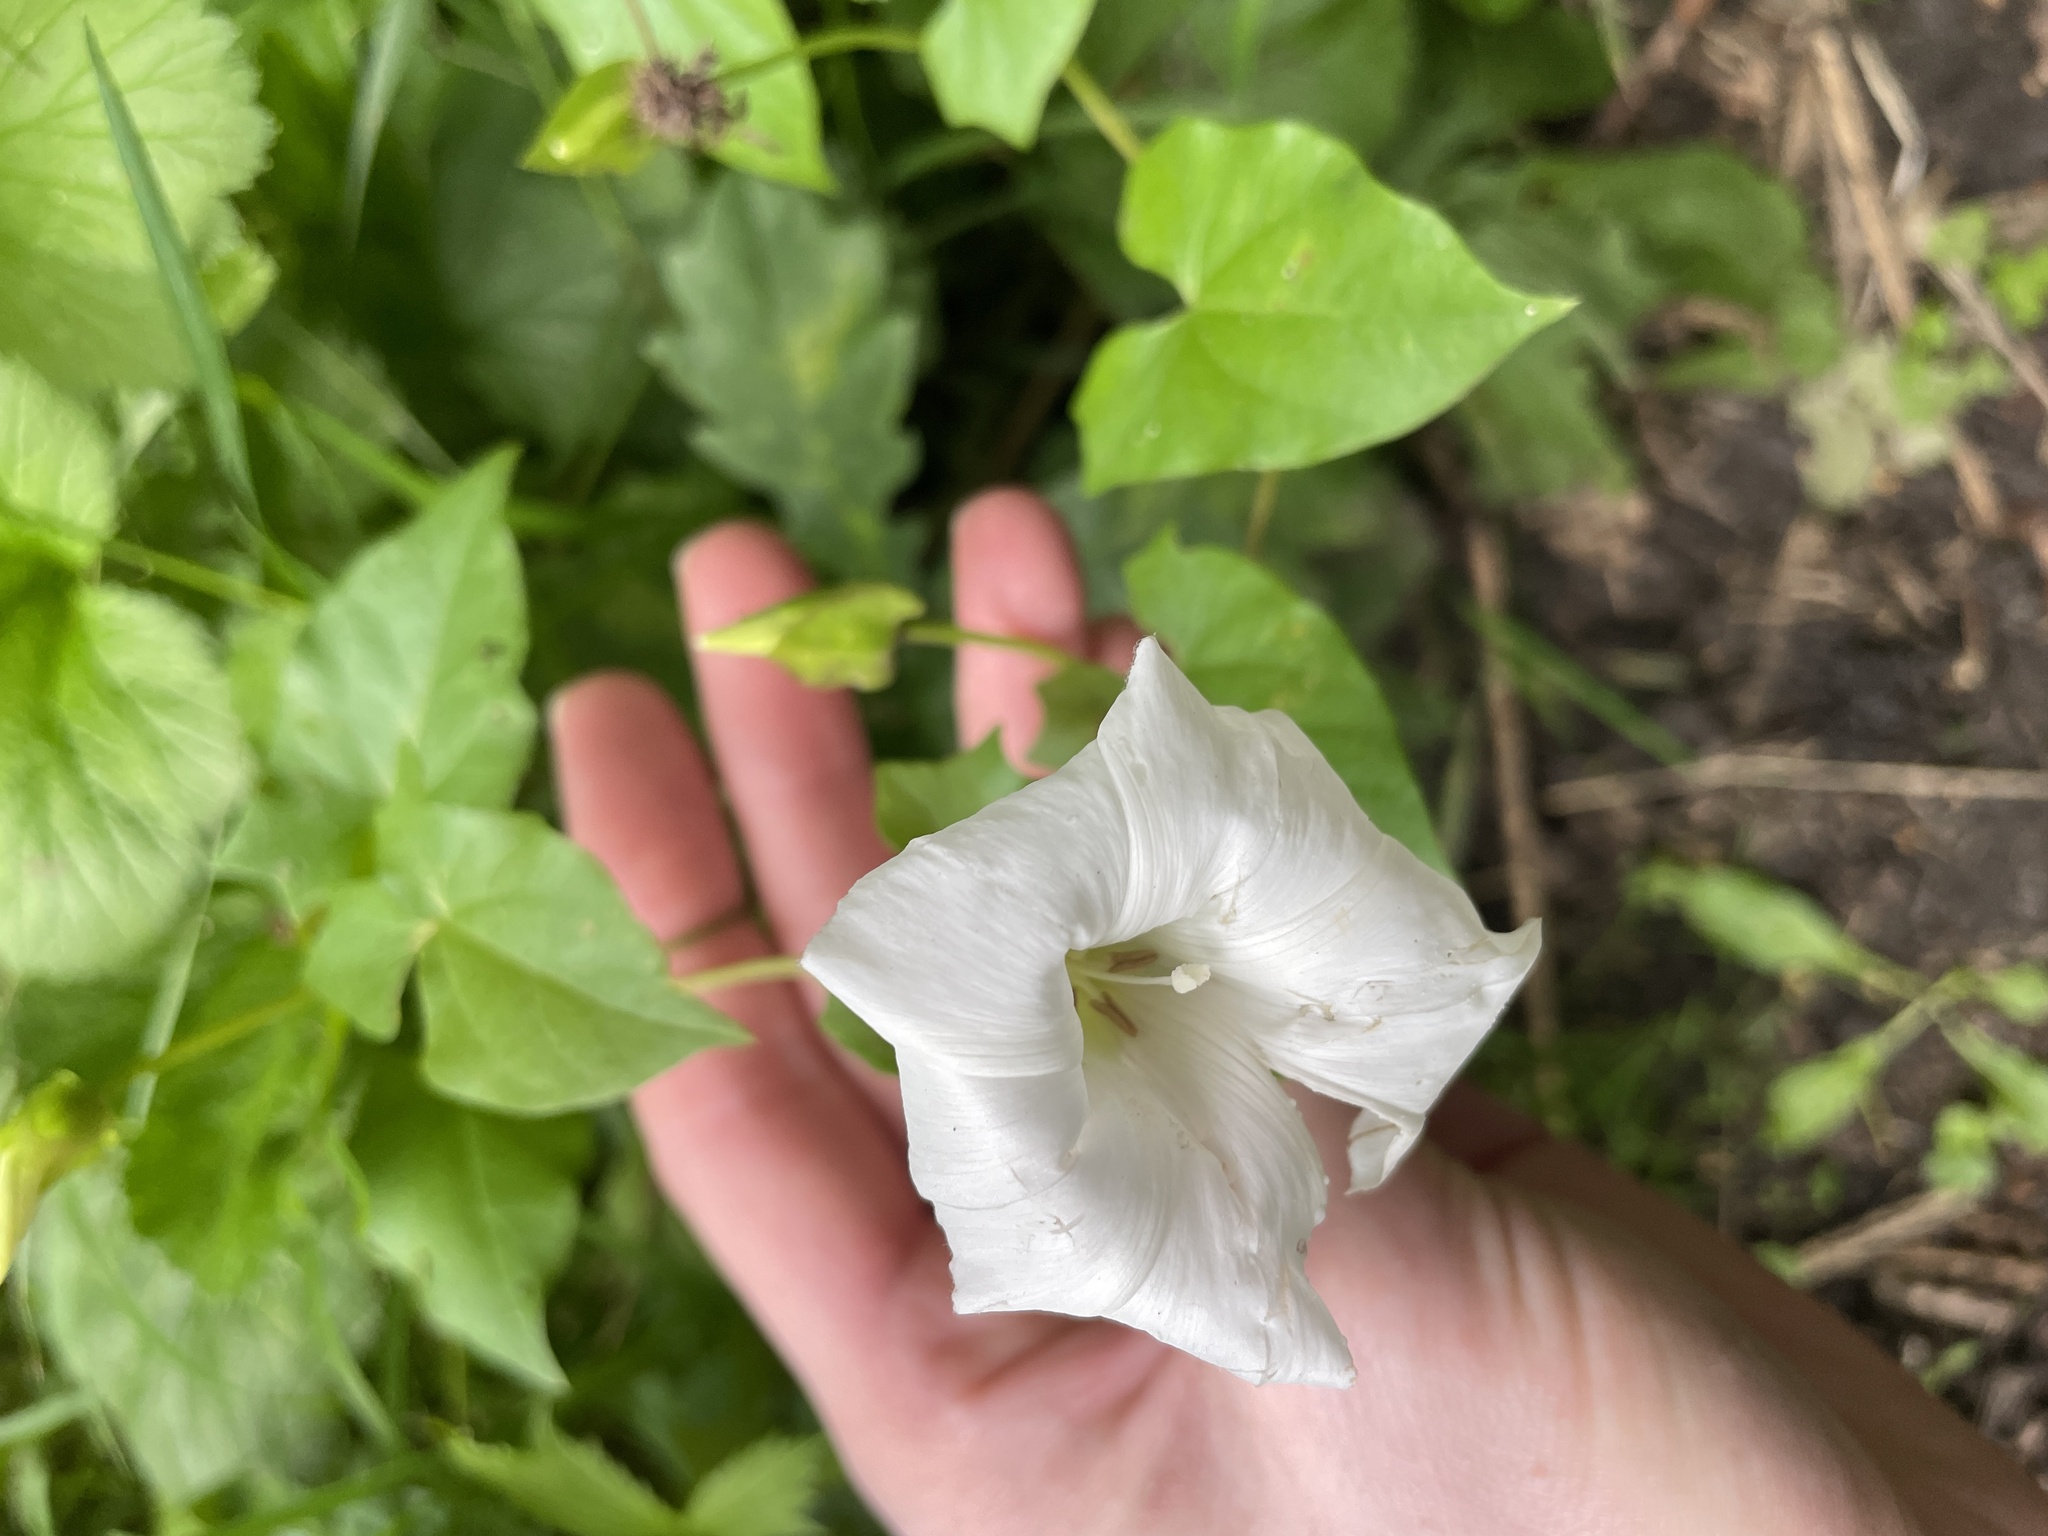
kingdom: Plantae
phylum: Tracheophyta
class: Magnoliopsida
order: Solanales
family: Convolvulaceae
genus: Calystegia
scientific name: Calystegia sepium
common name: Hedge bindweed
